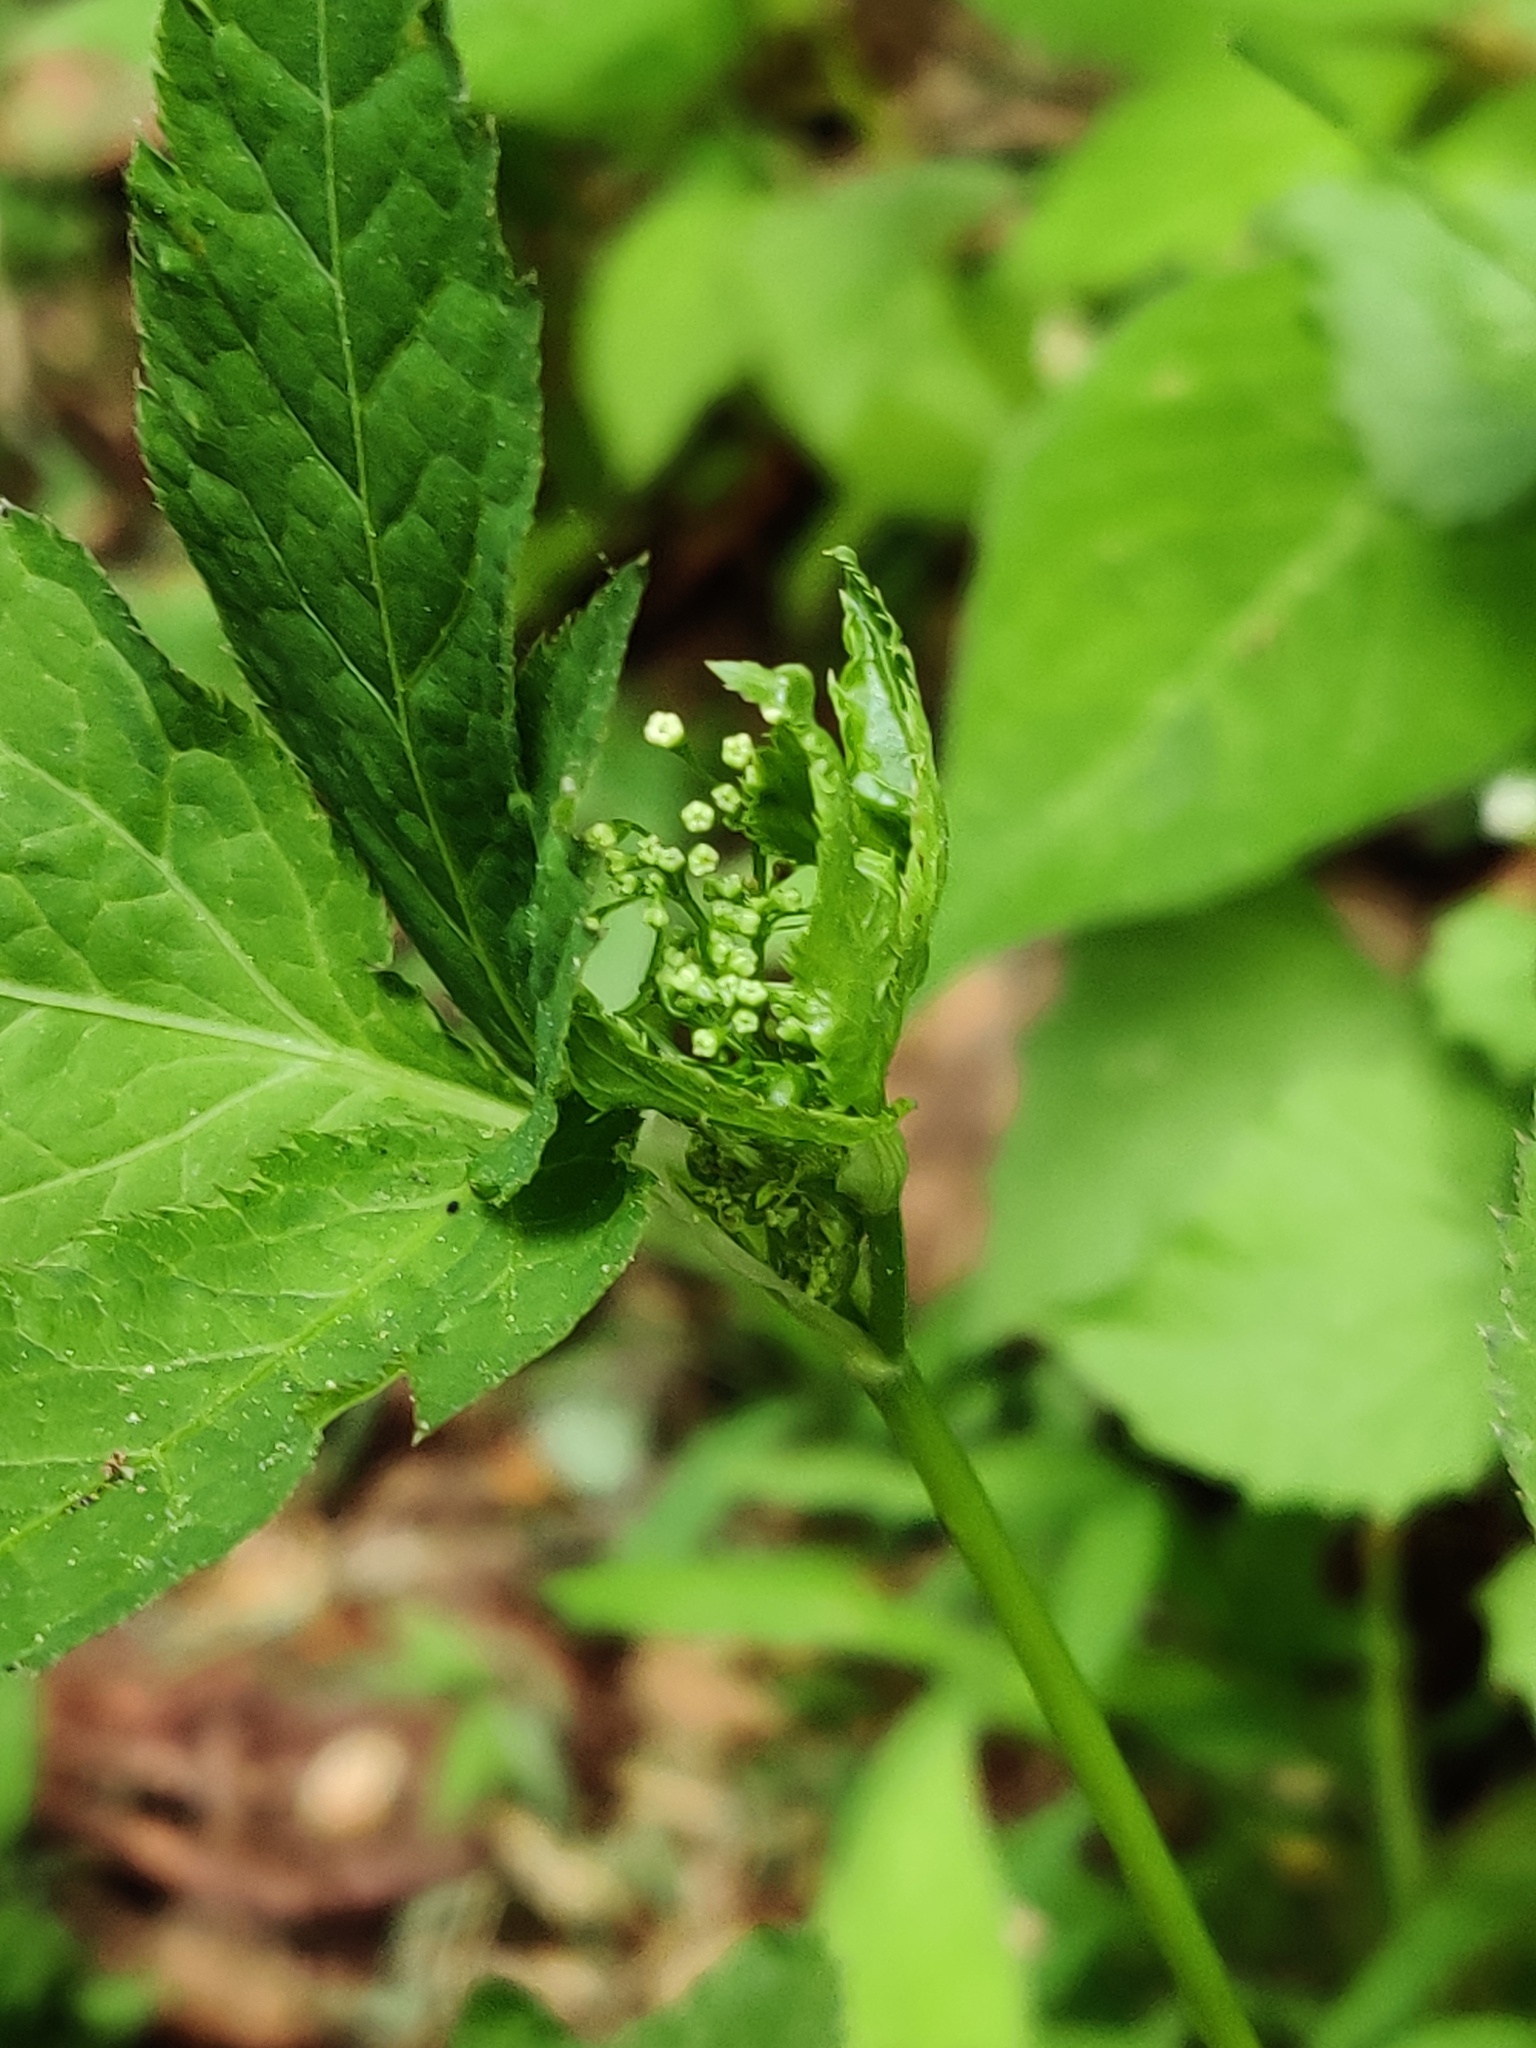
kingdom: Plantae
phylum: Tracheophyta
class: Magnoliopsida
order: Apiales
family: Apiaceae
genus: Cryptotaenia
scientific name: Cryptotaenia canadensis
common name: Honewort
